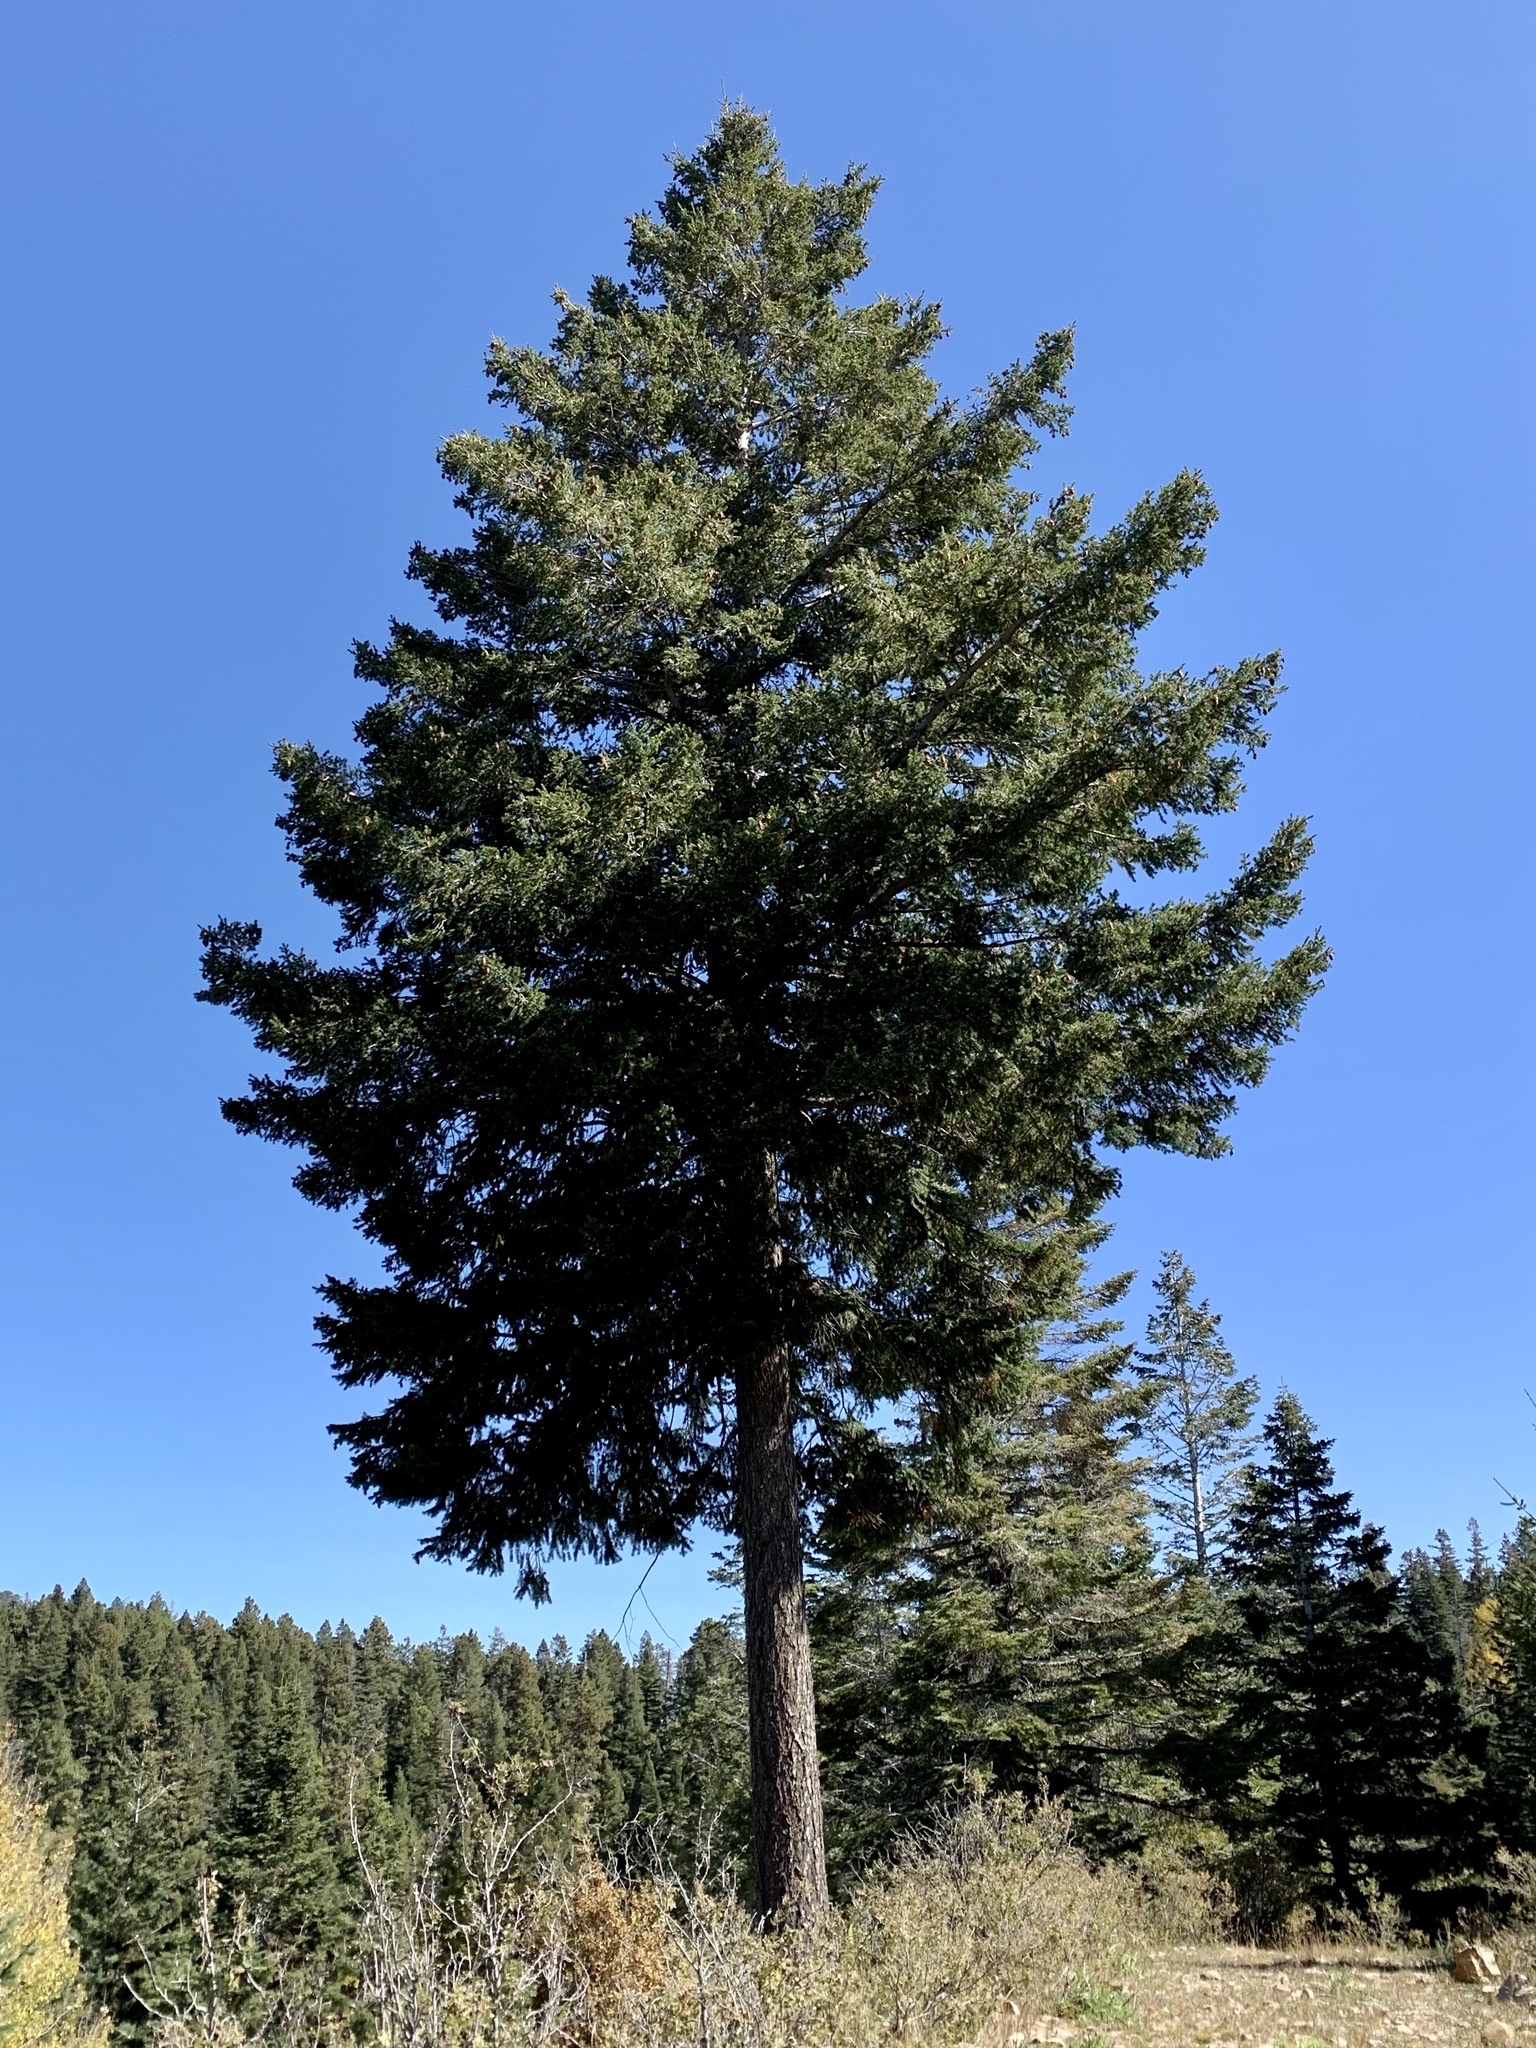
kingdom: Plantae
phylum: Tracheophyta
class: Pinopsida
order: Pinales
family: Pinaceae
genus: Pseudotsuga
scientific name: Pseudotsuga menziesii
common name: Douglas fir
